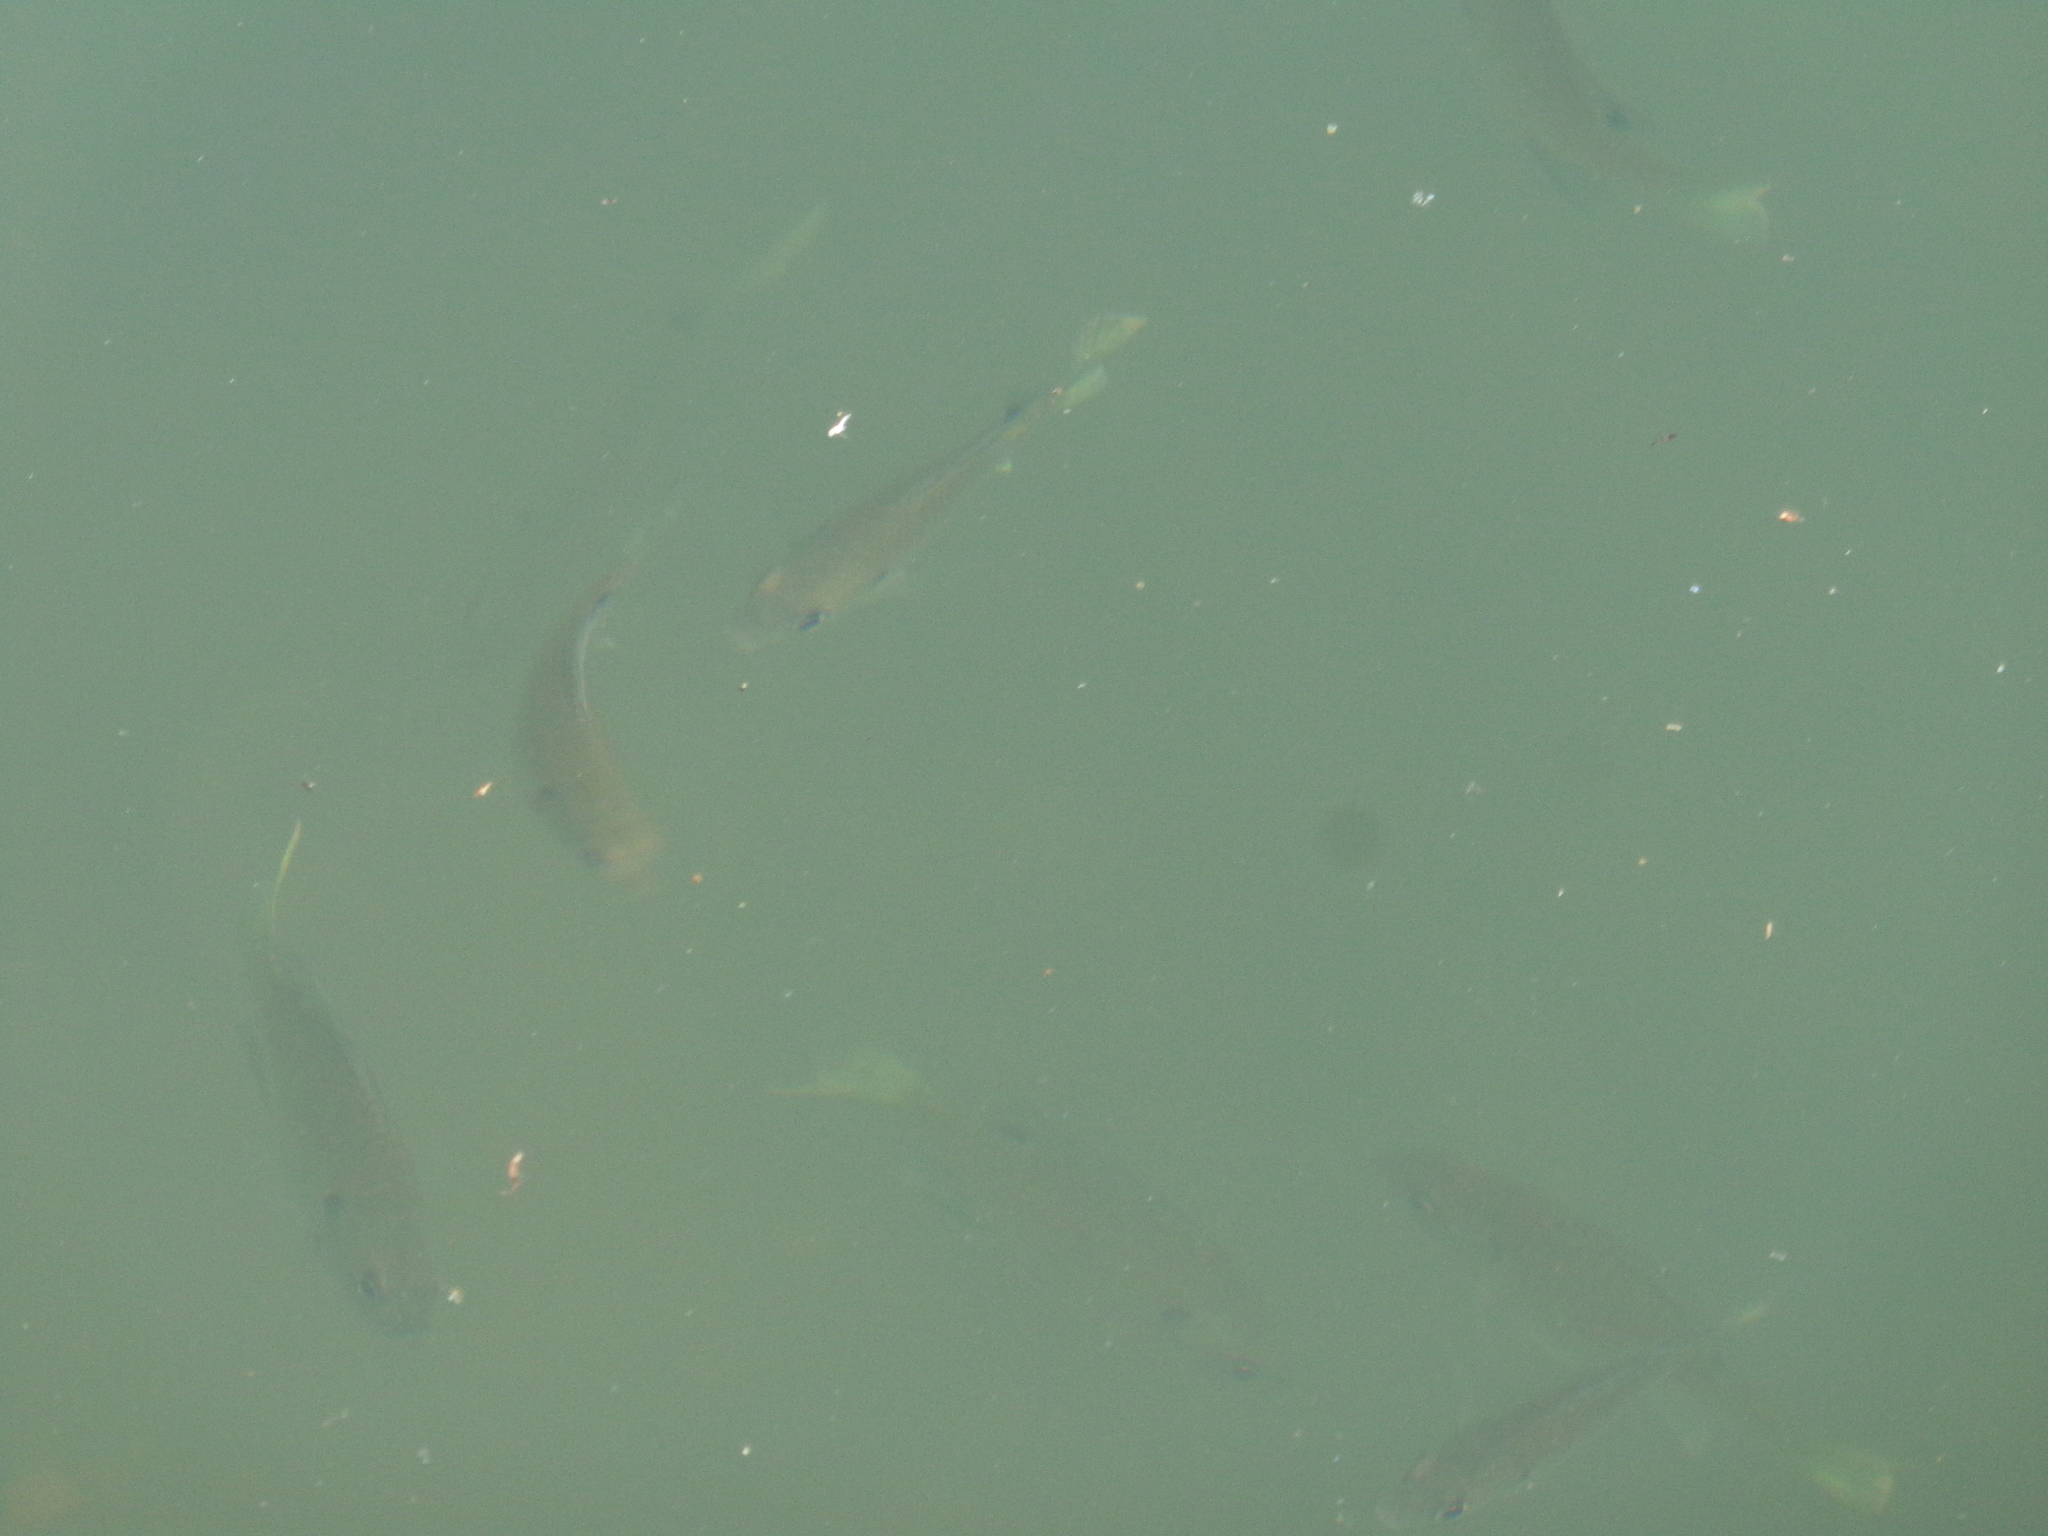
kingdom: Animalia
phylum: Chordata
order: Perciformes
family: Centrarchidae
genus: Lepomis
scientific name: Lepomis
